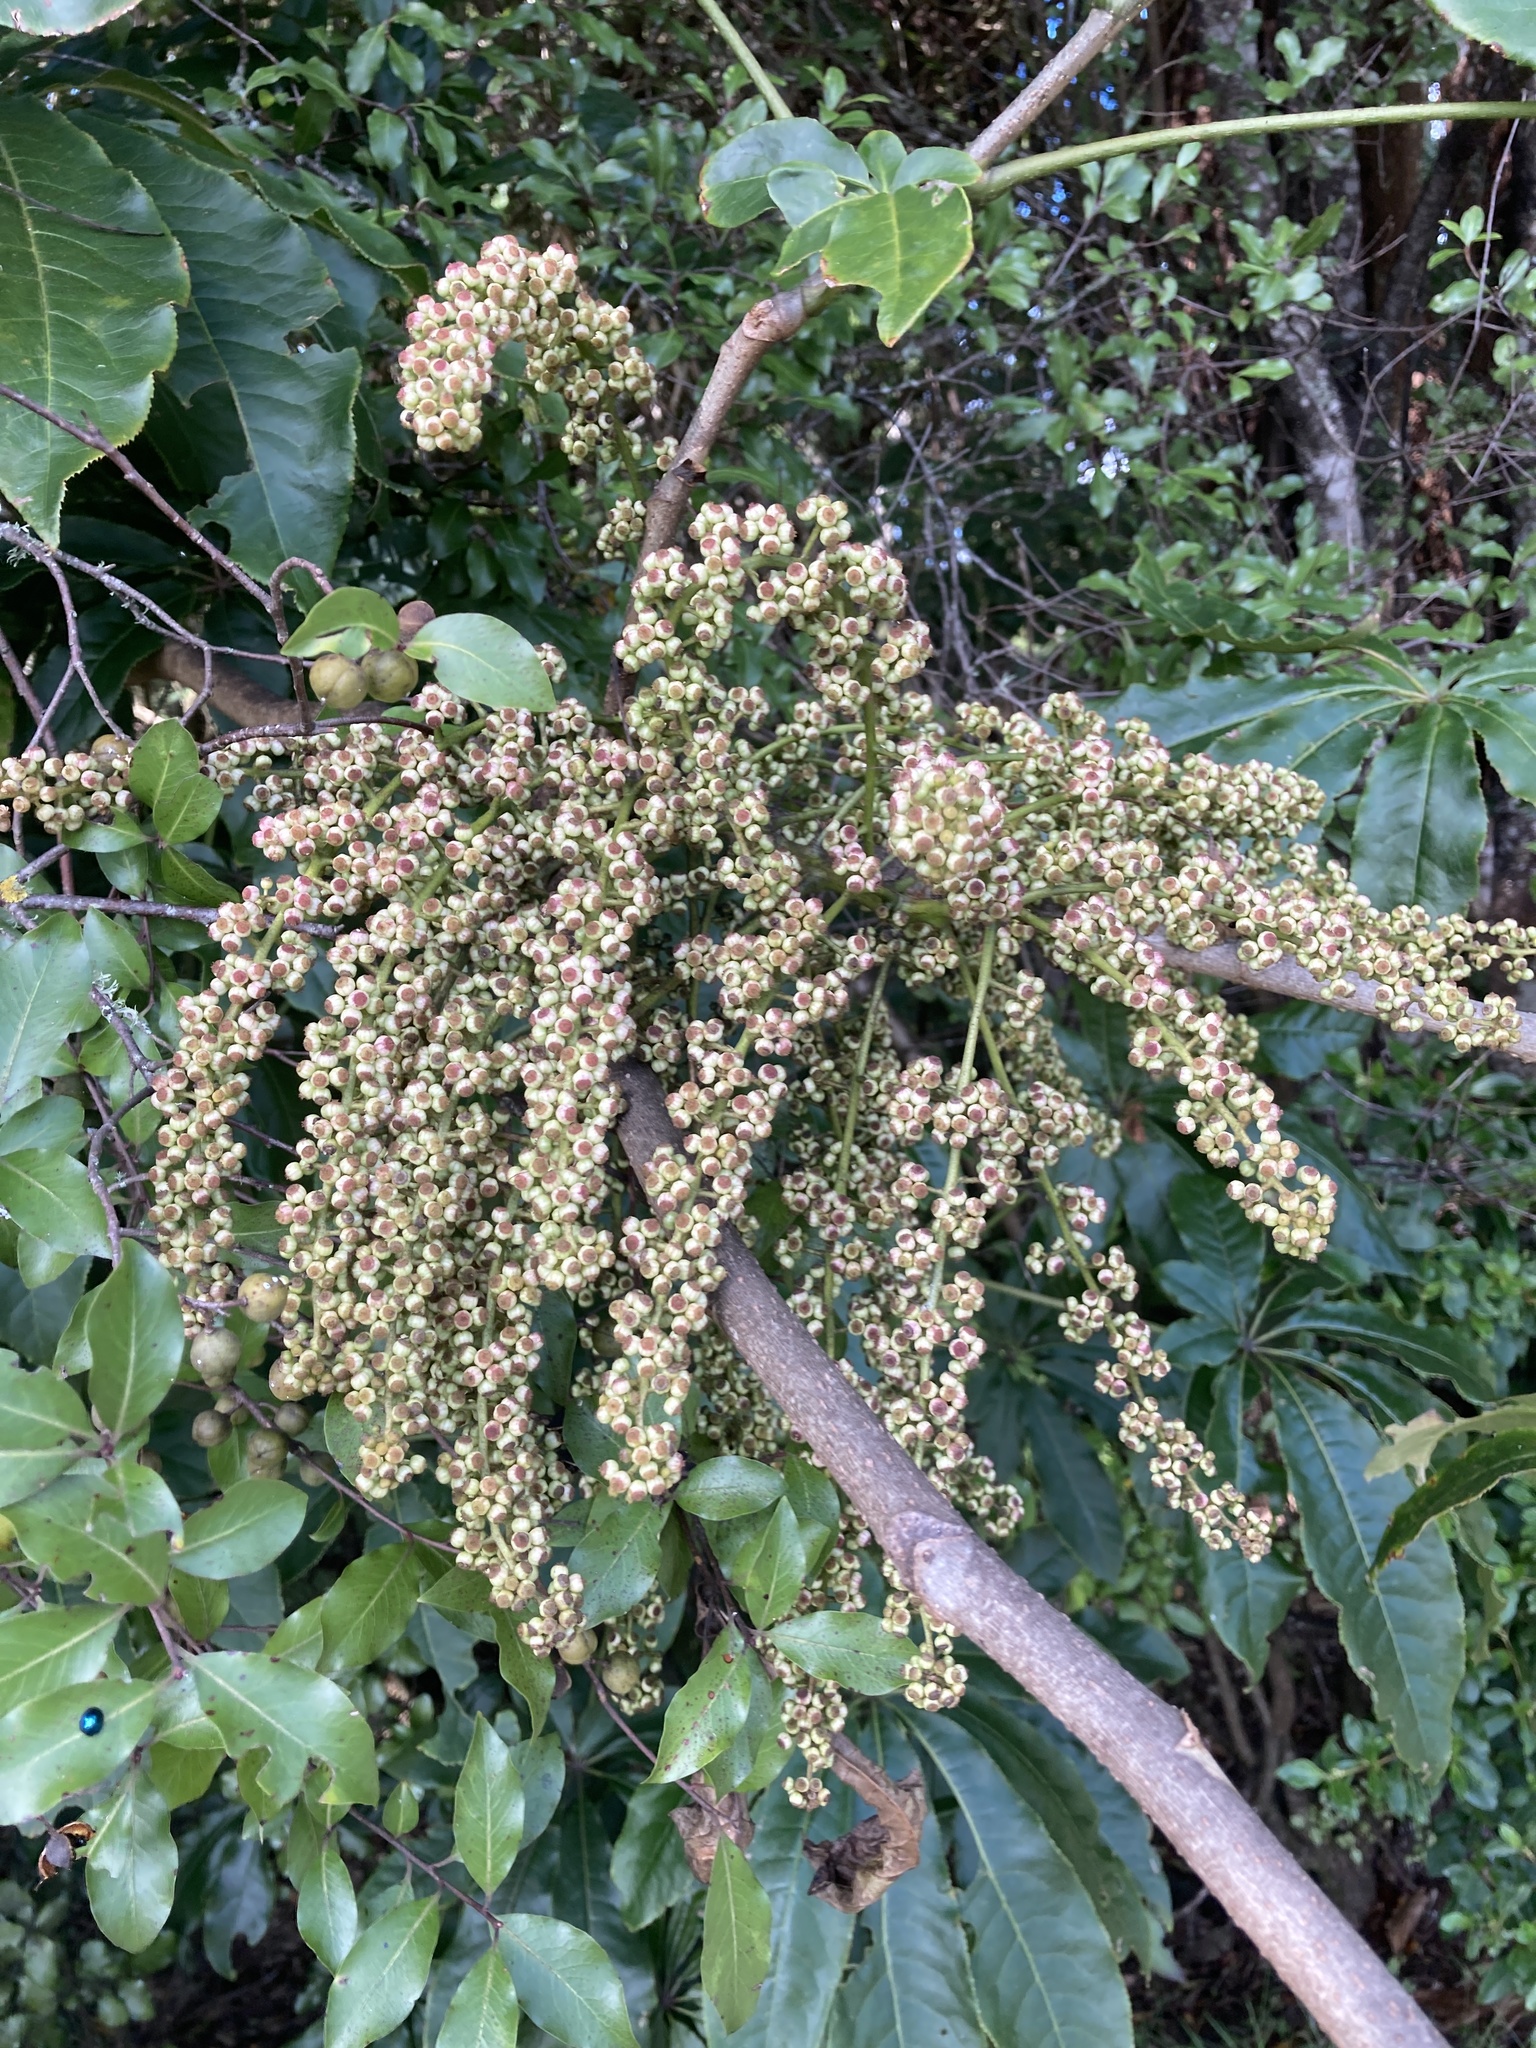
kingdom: Plantae
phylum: Tracheophyta
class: Magnoliopsida
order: Apiales
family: Araliaceae
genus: Schefflera
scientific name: Schefflera digitata
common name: Pate
